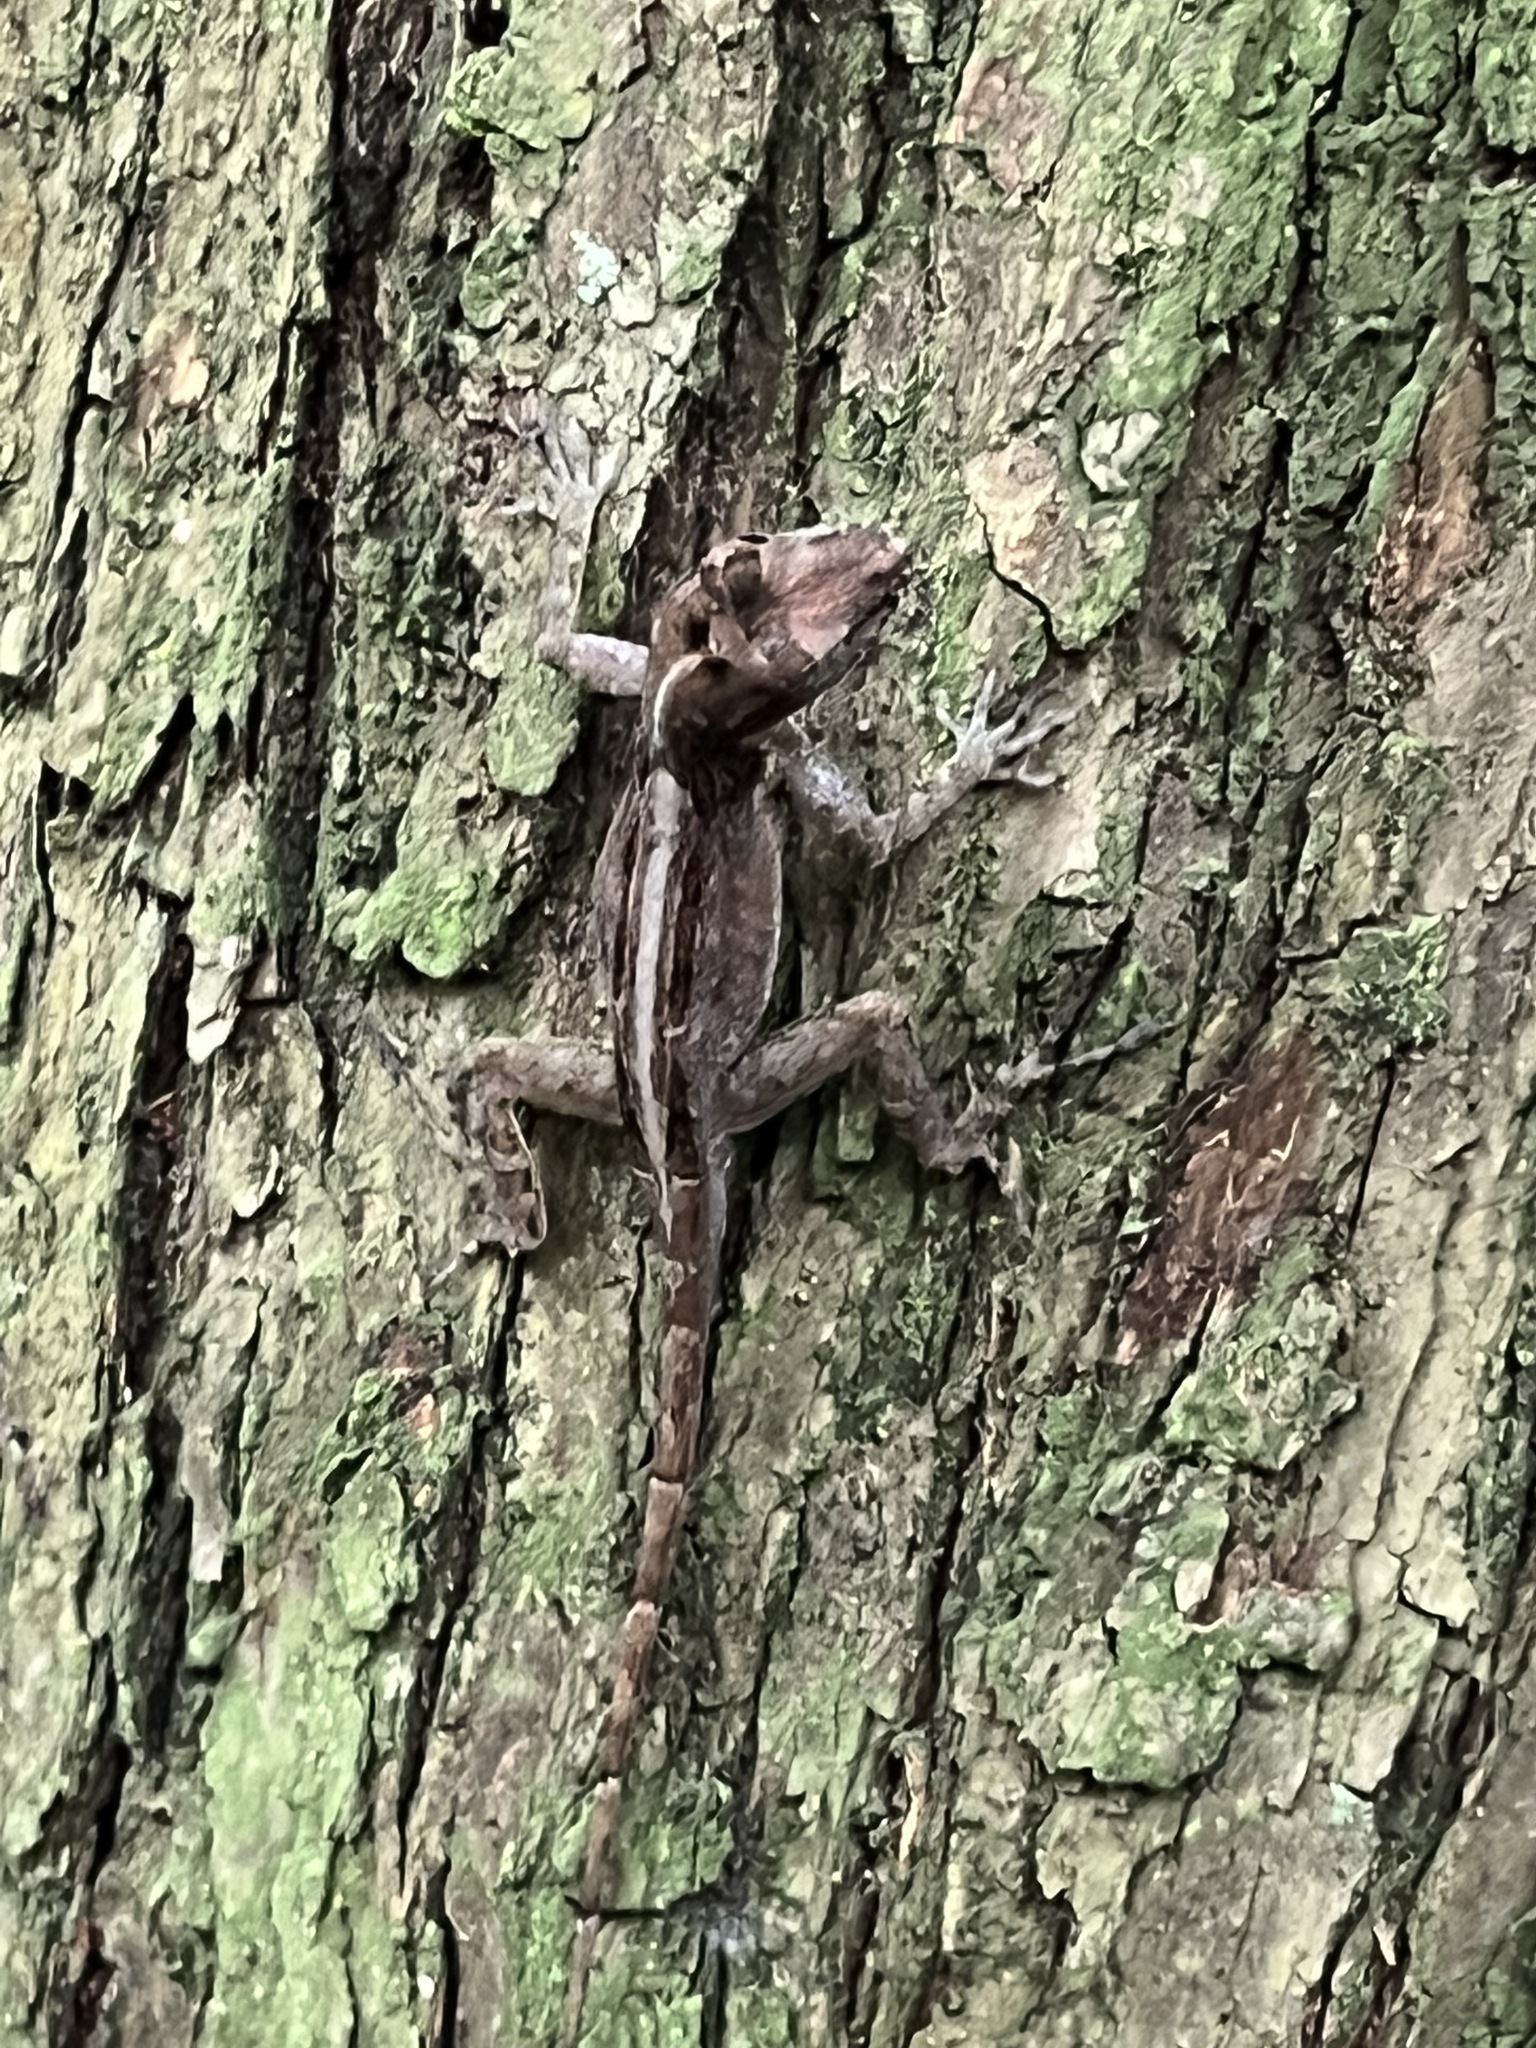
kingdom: Animalia
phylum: Chordata
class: Squamata
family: Dactyloidae
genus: Anolis
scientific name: Anolis cristatellus
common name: Crested anole
